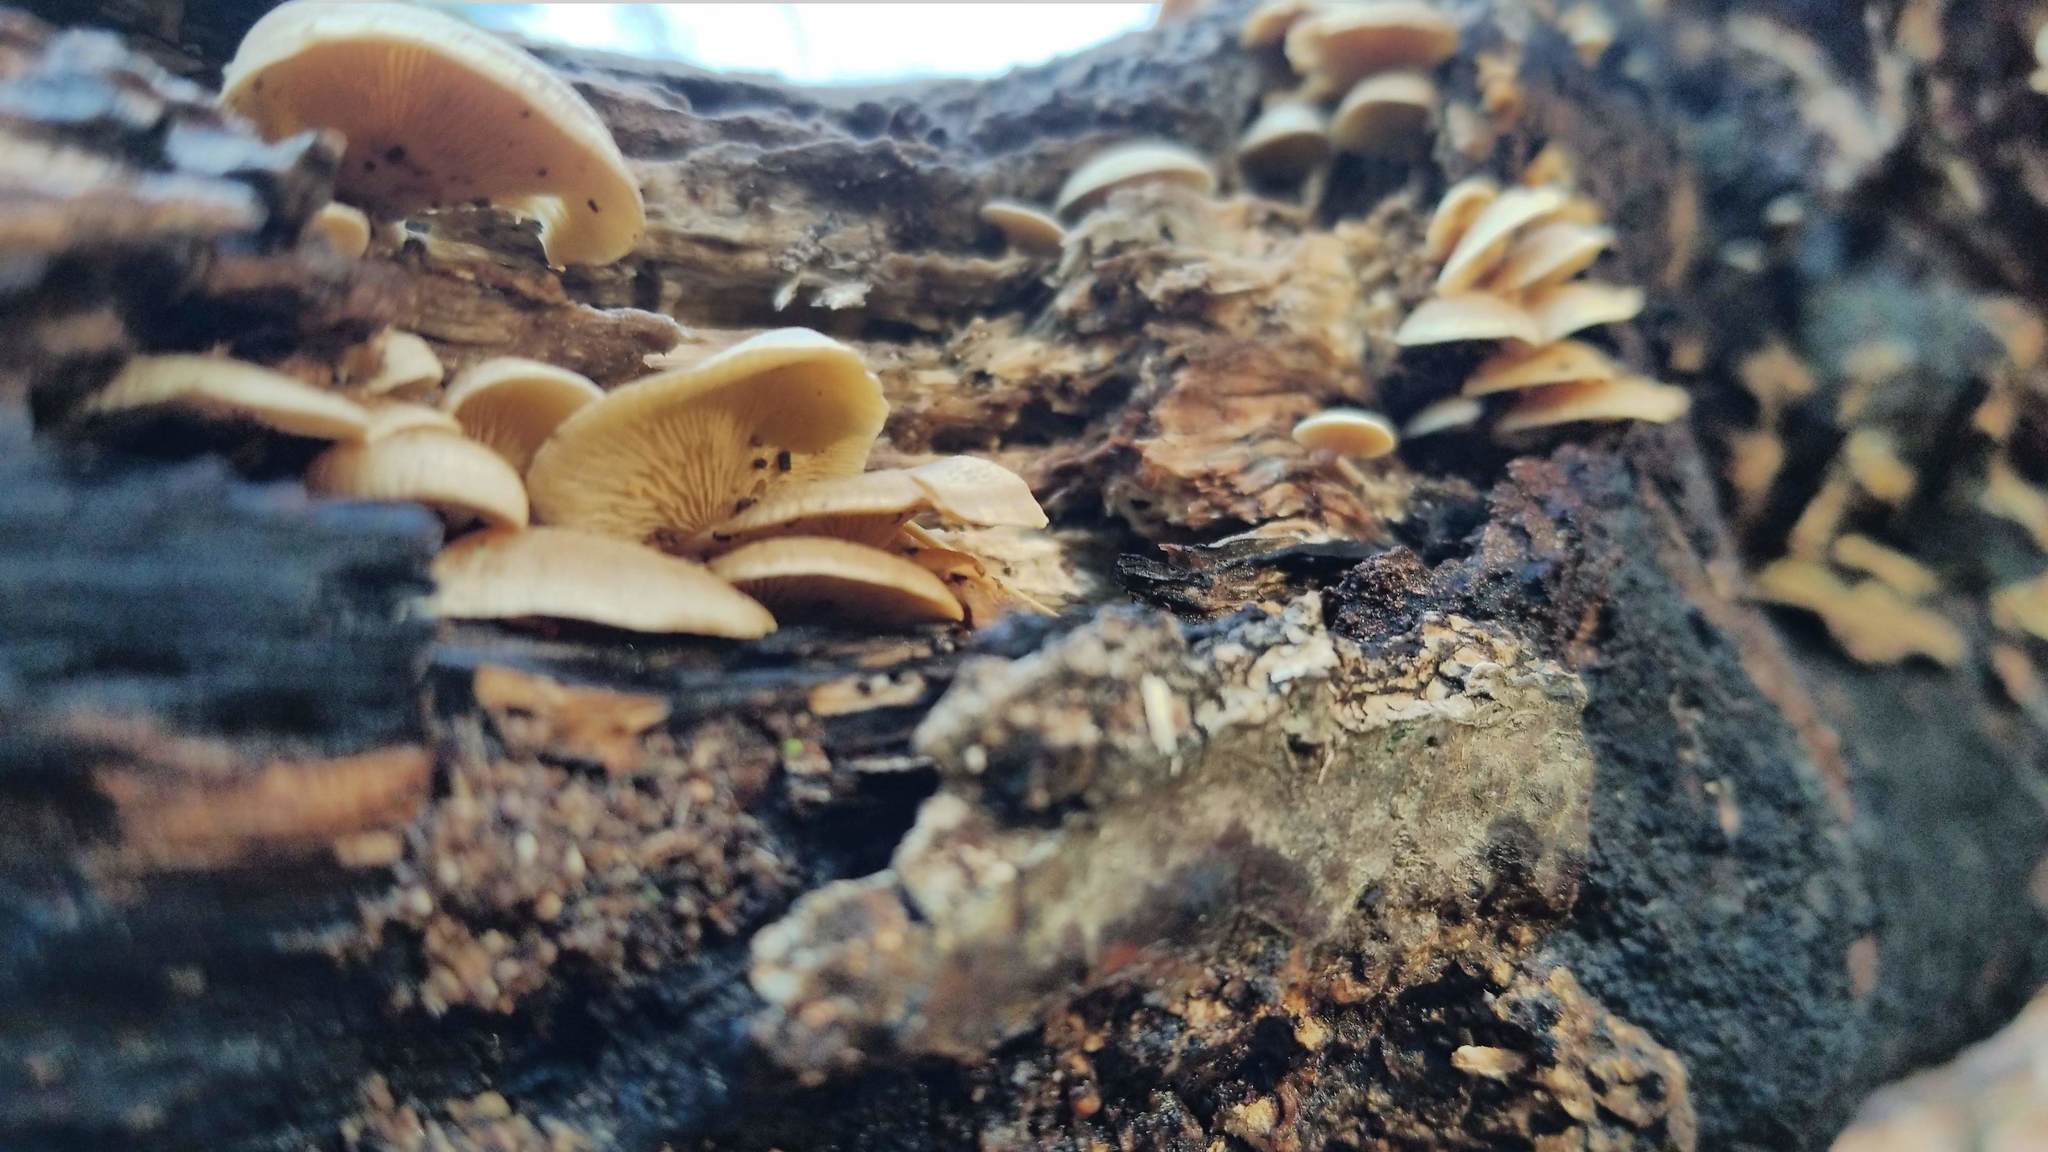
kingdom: Fungi
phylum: Basidiomycota
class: Agaricomycetes
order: Agaricales
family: Mycenaceae
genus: Panellus
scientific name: Panellus stipticus
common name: Bitter oysterling
